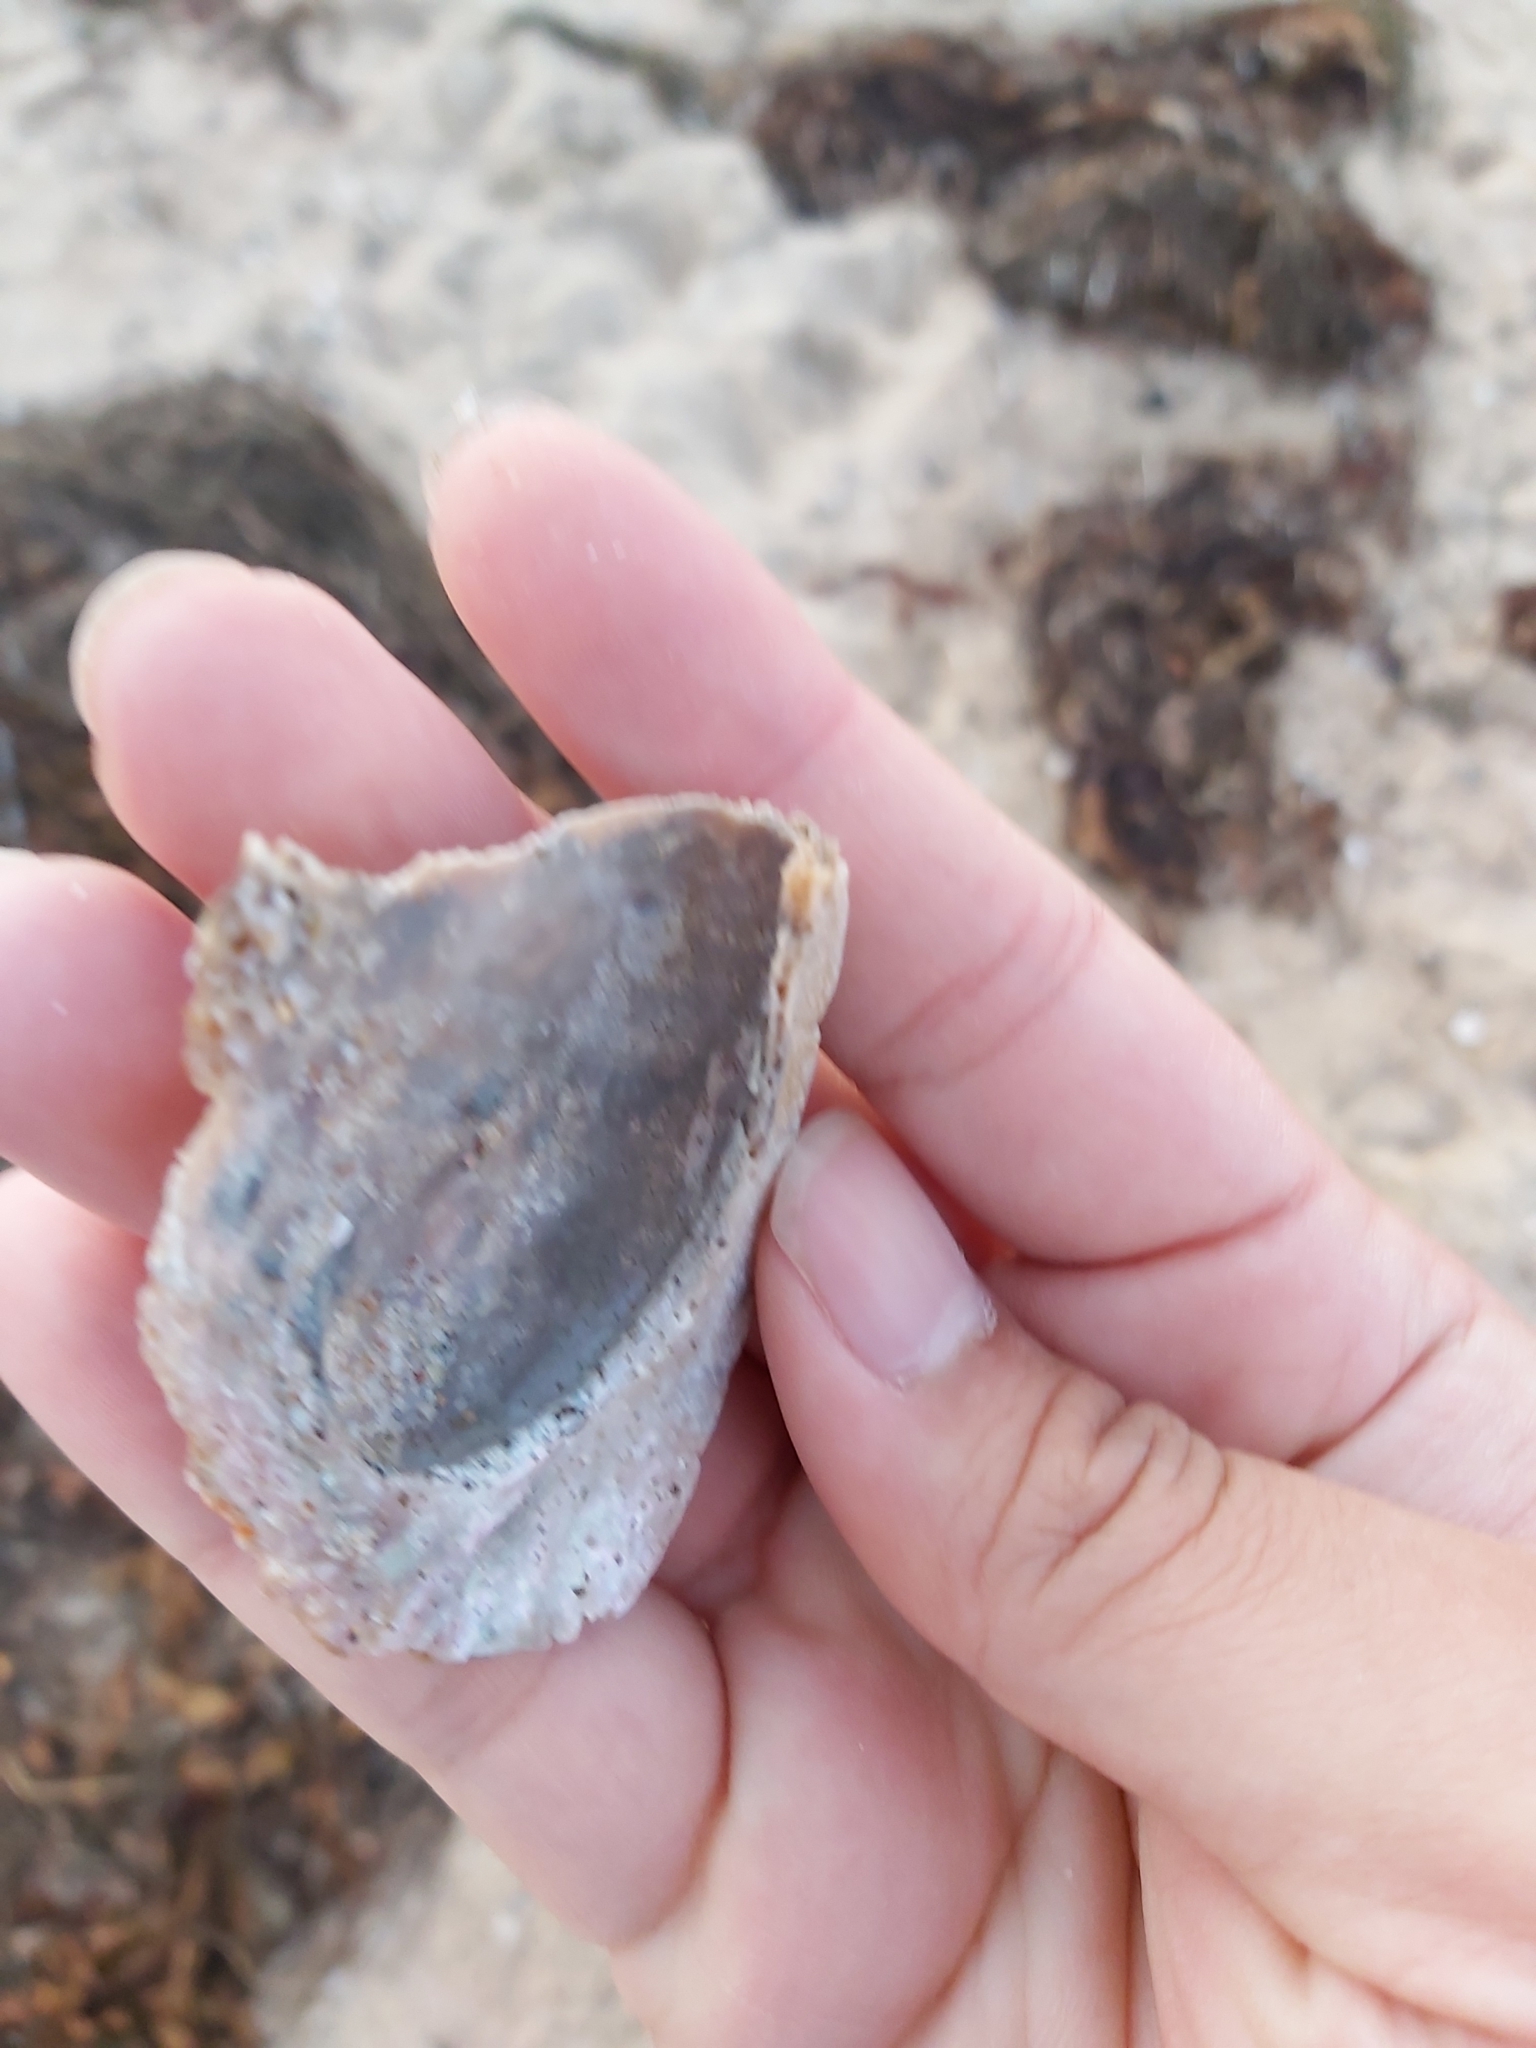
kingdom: Animalia
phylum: Mollusca
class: Gastropoda
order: Lepetellida
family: Haliotidae
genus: Haliotis
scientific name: Haliotis rubra
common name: Blacklip abalone
